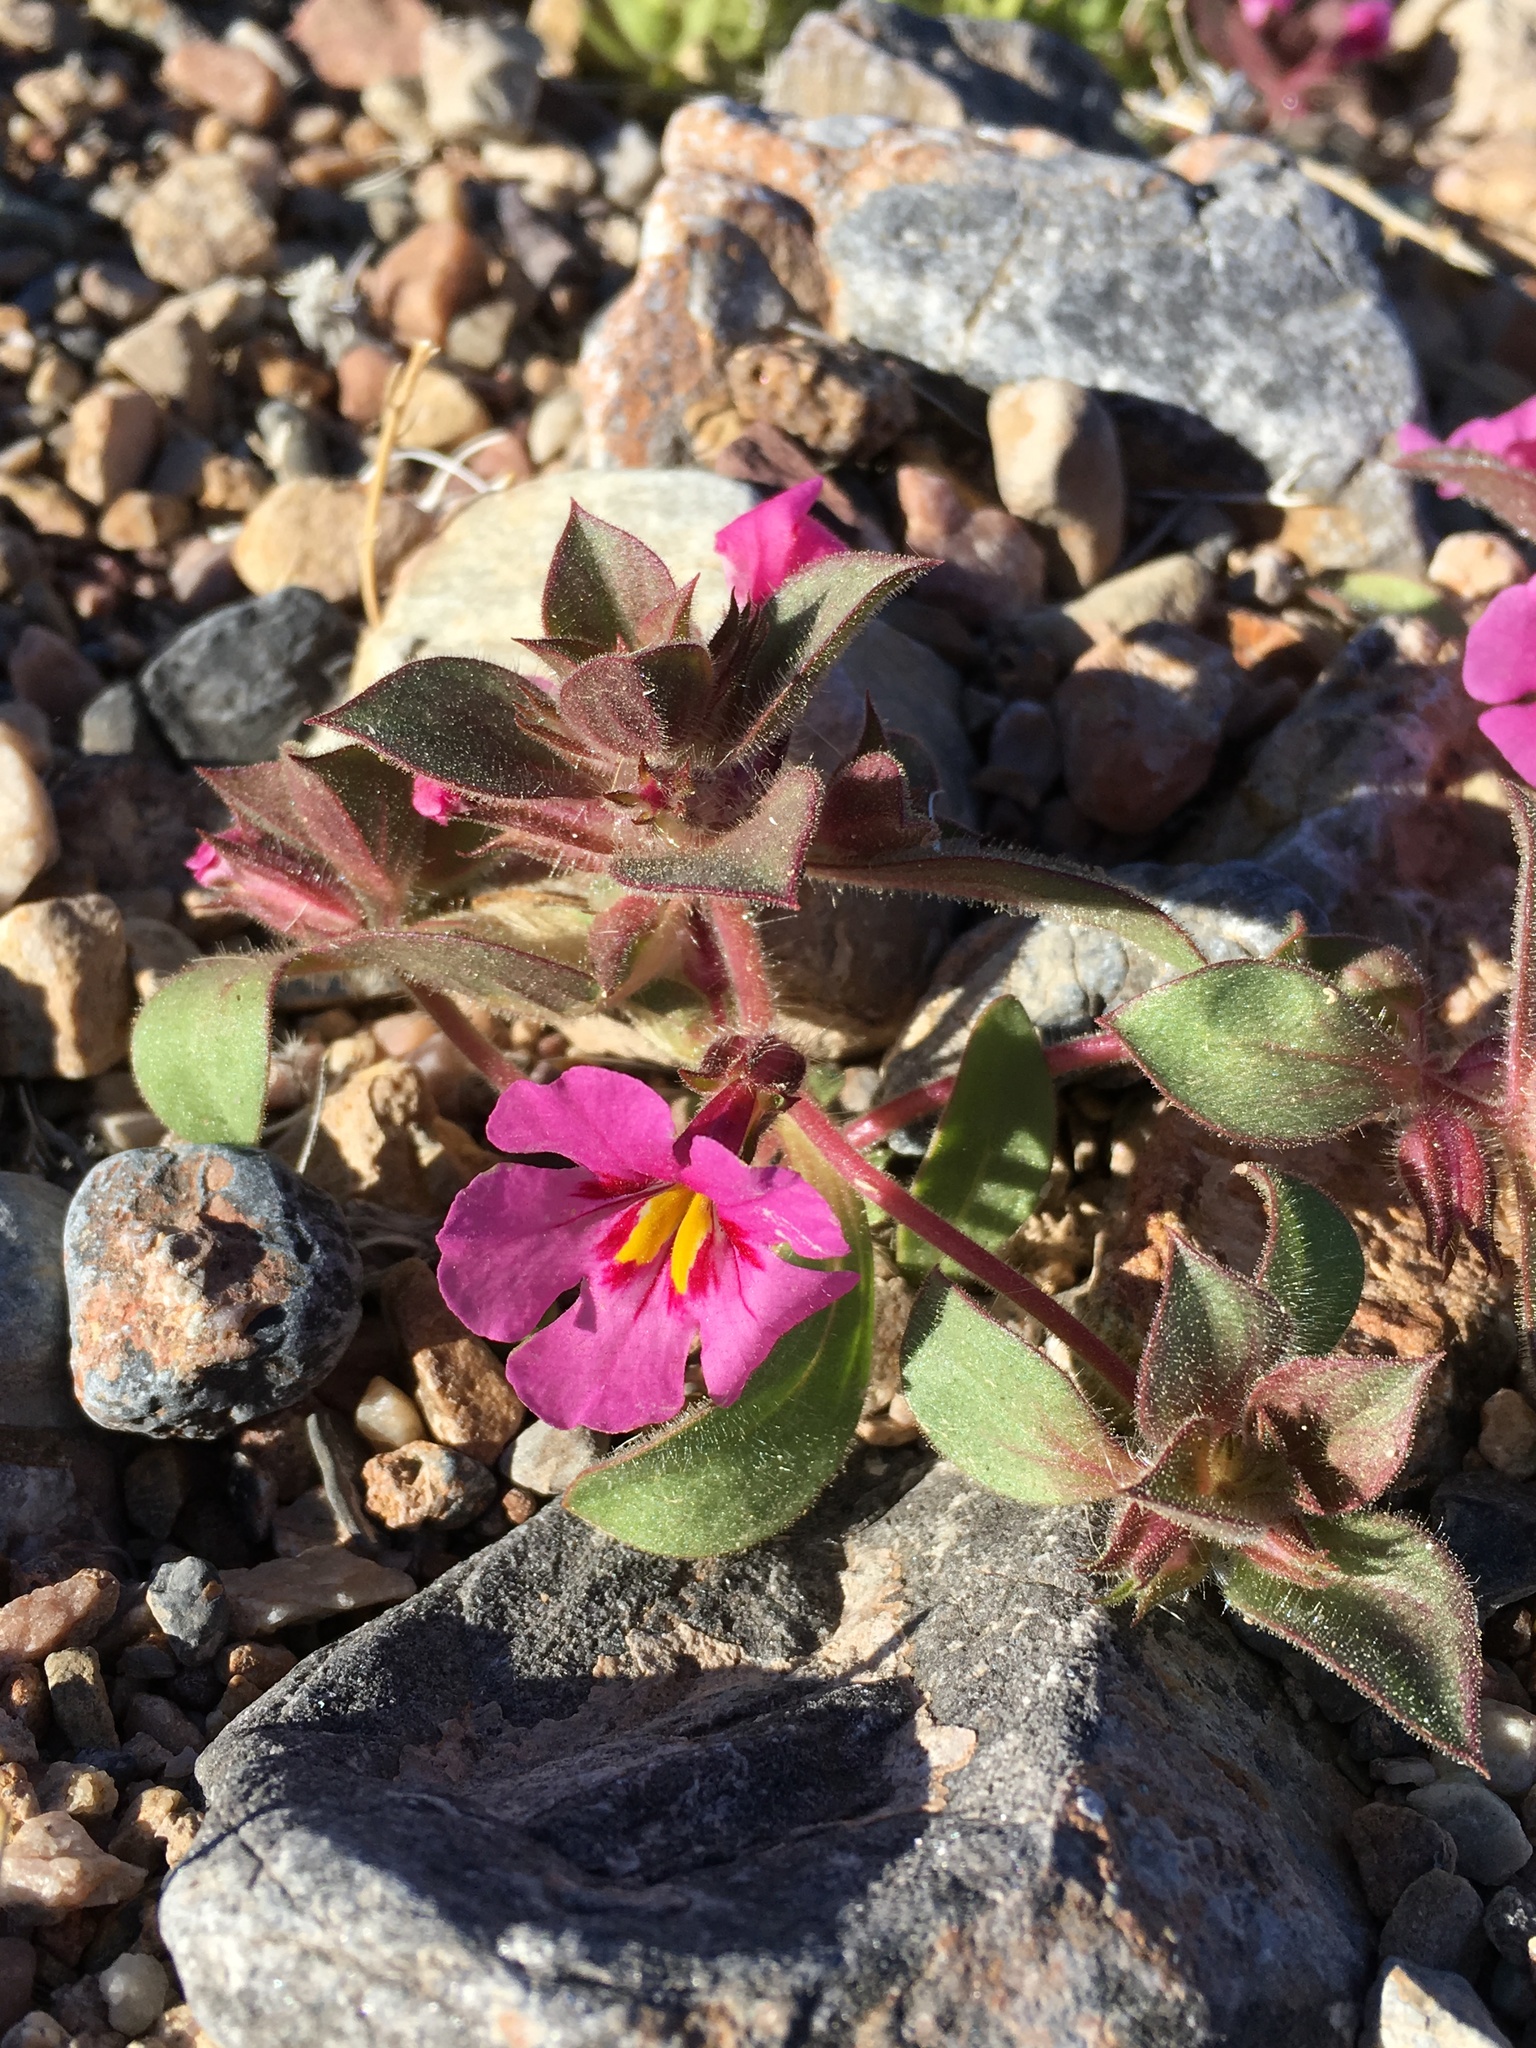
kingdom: Plantae
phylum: Tracheophyta
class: Magnoliopsida
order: Lamiales
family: Phrymaceae
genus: Diplacus
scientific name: Diplacus bigelovii
